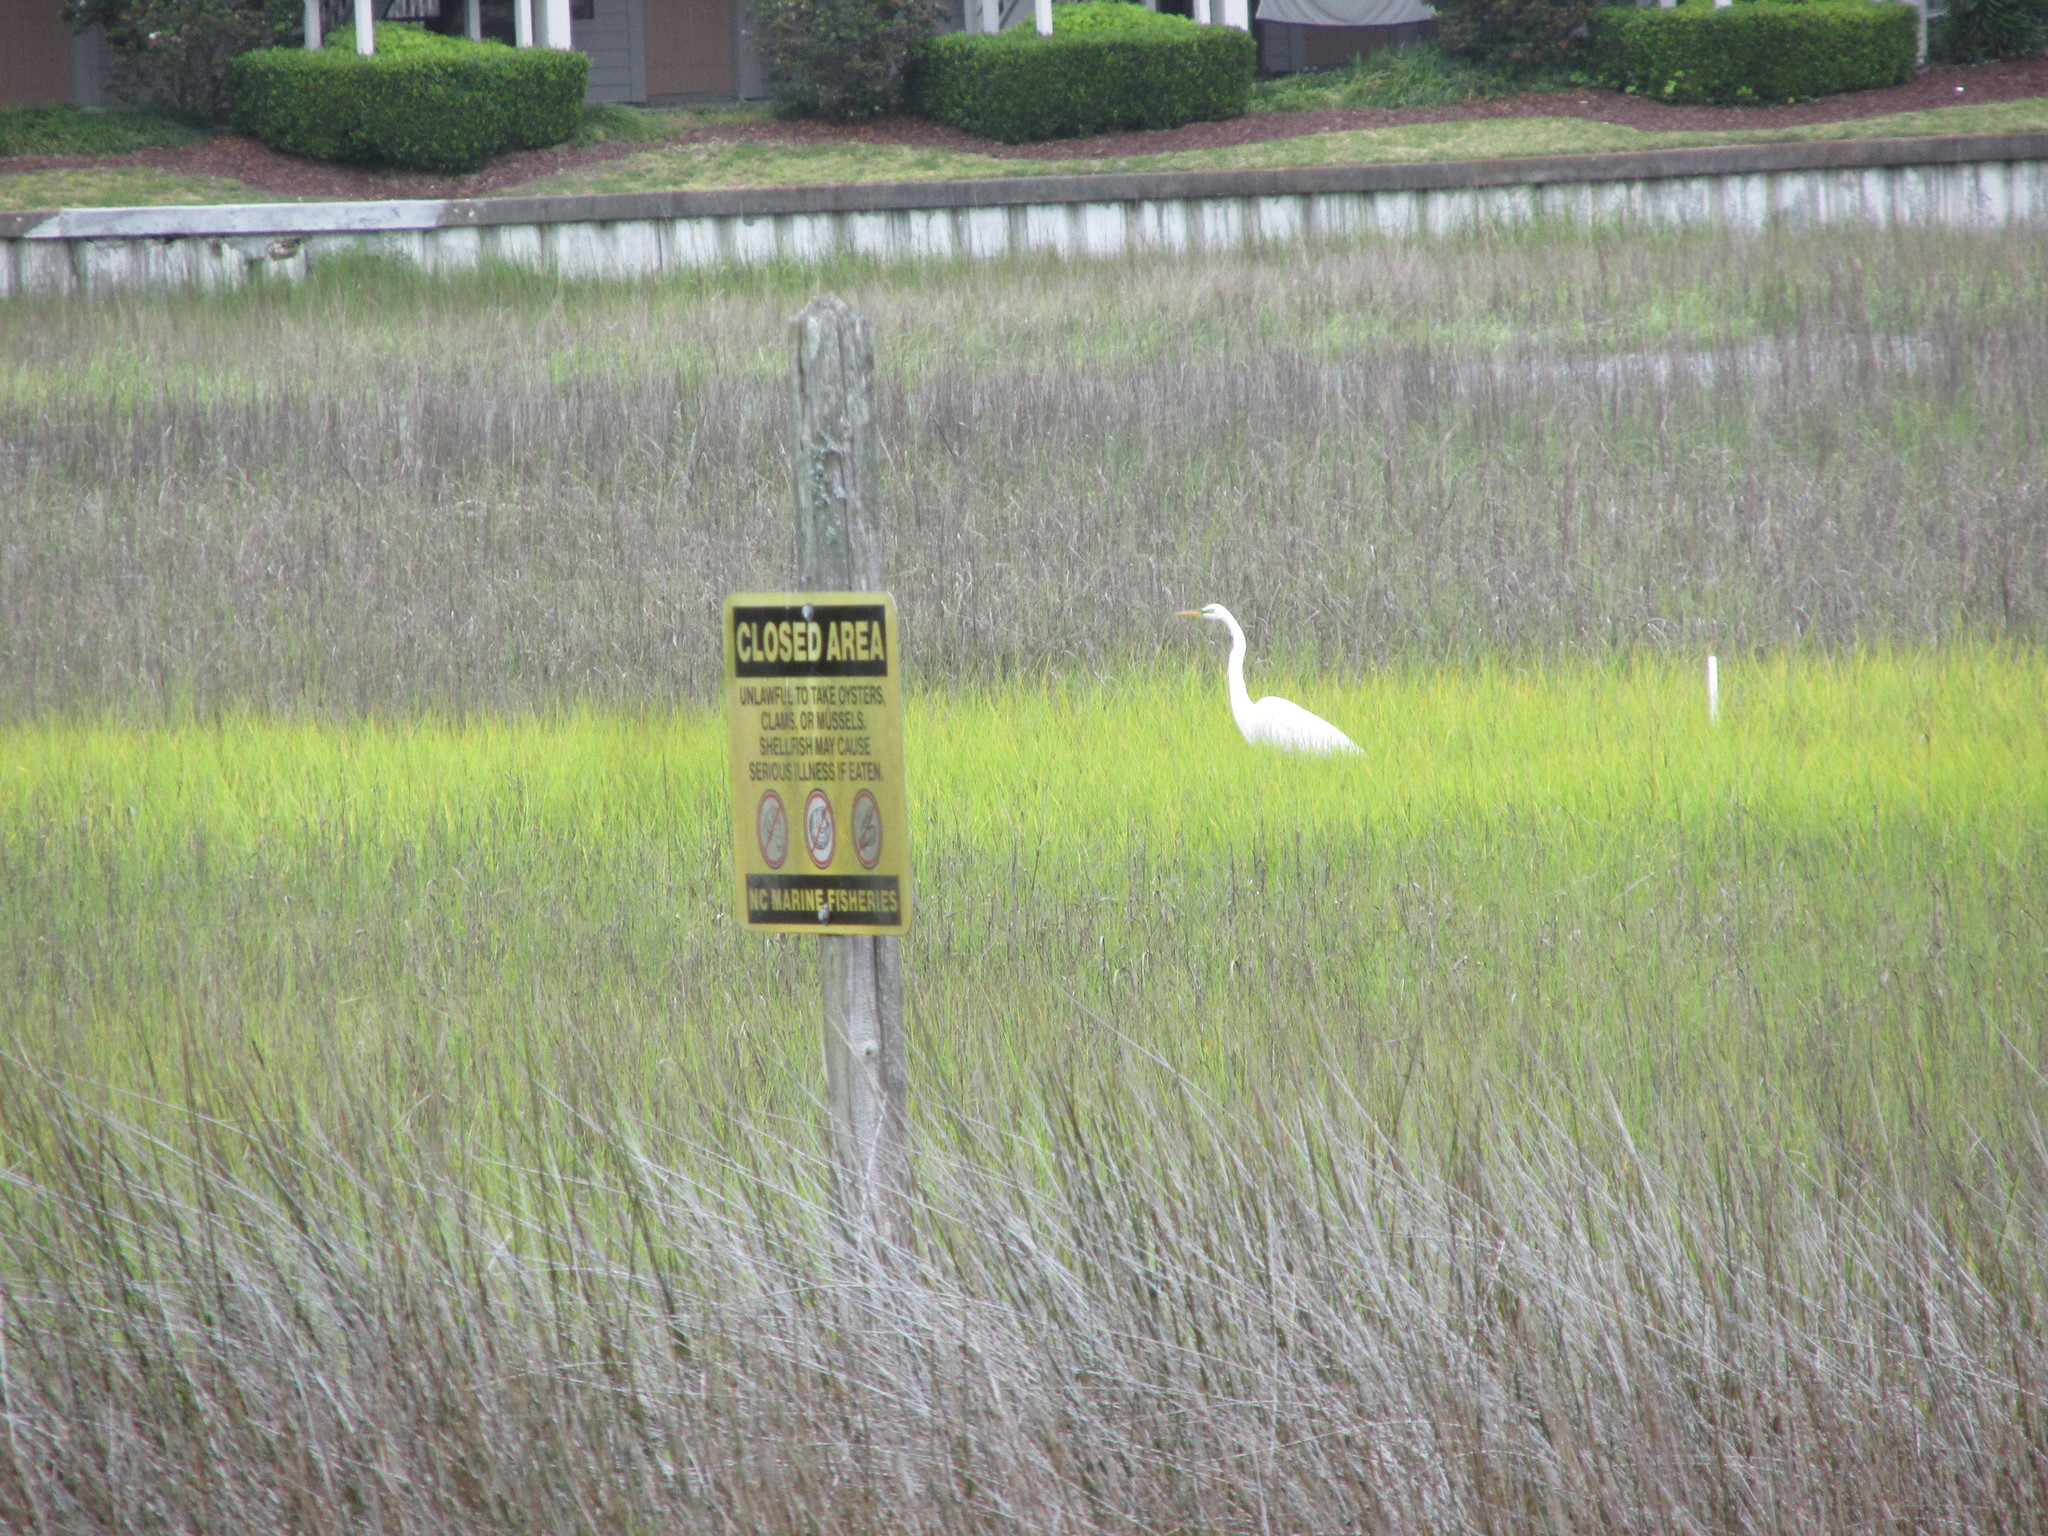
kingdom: Animalia
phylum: Chordata
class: Aves
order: Pelecaniformes
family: Ardeidae
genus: Ardea
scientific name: Ardea alba
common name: Great egret
